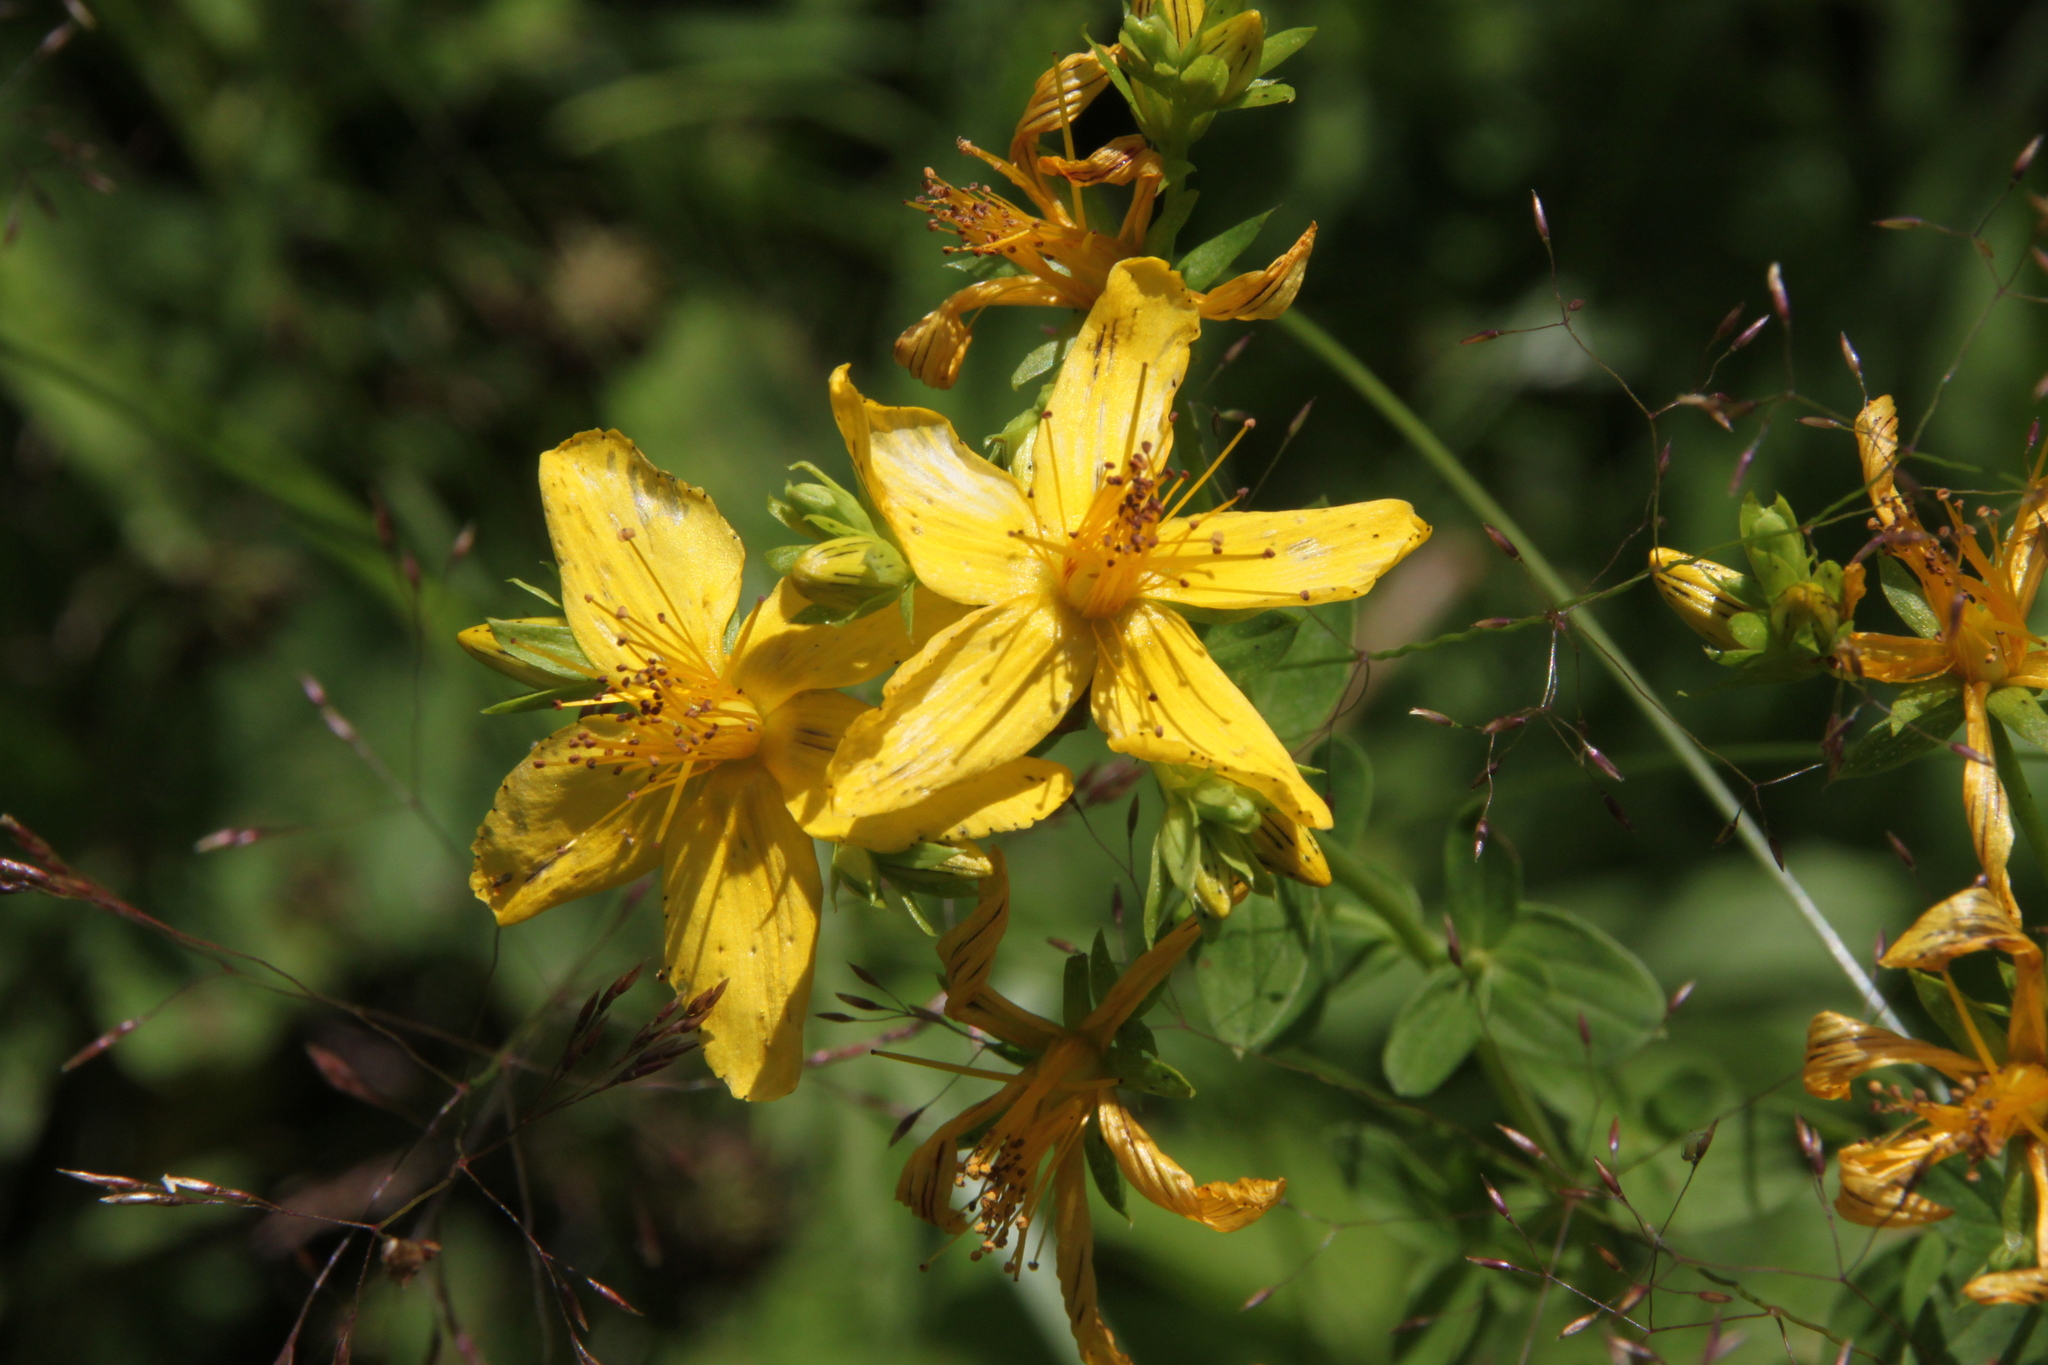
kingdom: Plantae
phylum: Tracheophyta
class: Magnoliopsida
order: Malpighiales
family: Hypericaceae
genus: Hypericum
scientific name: Hypericum perforatum
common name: Common st. johnswort
